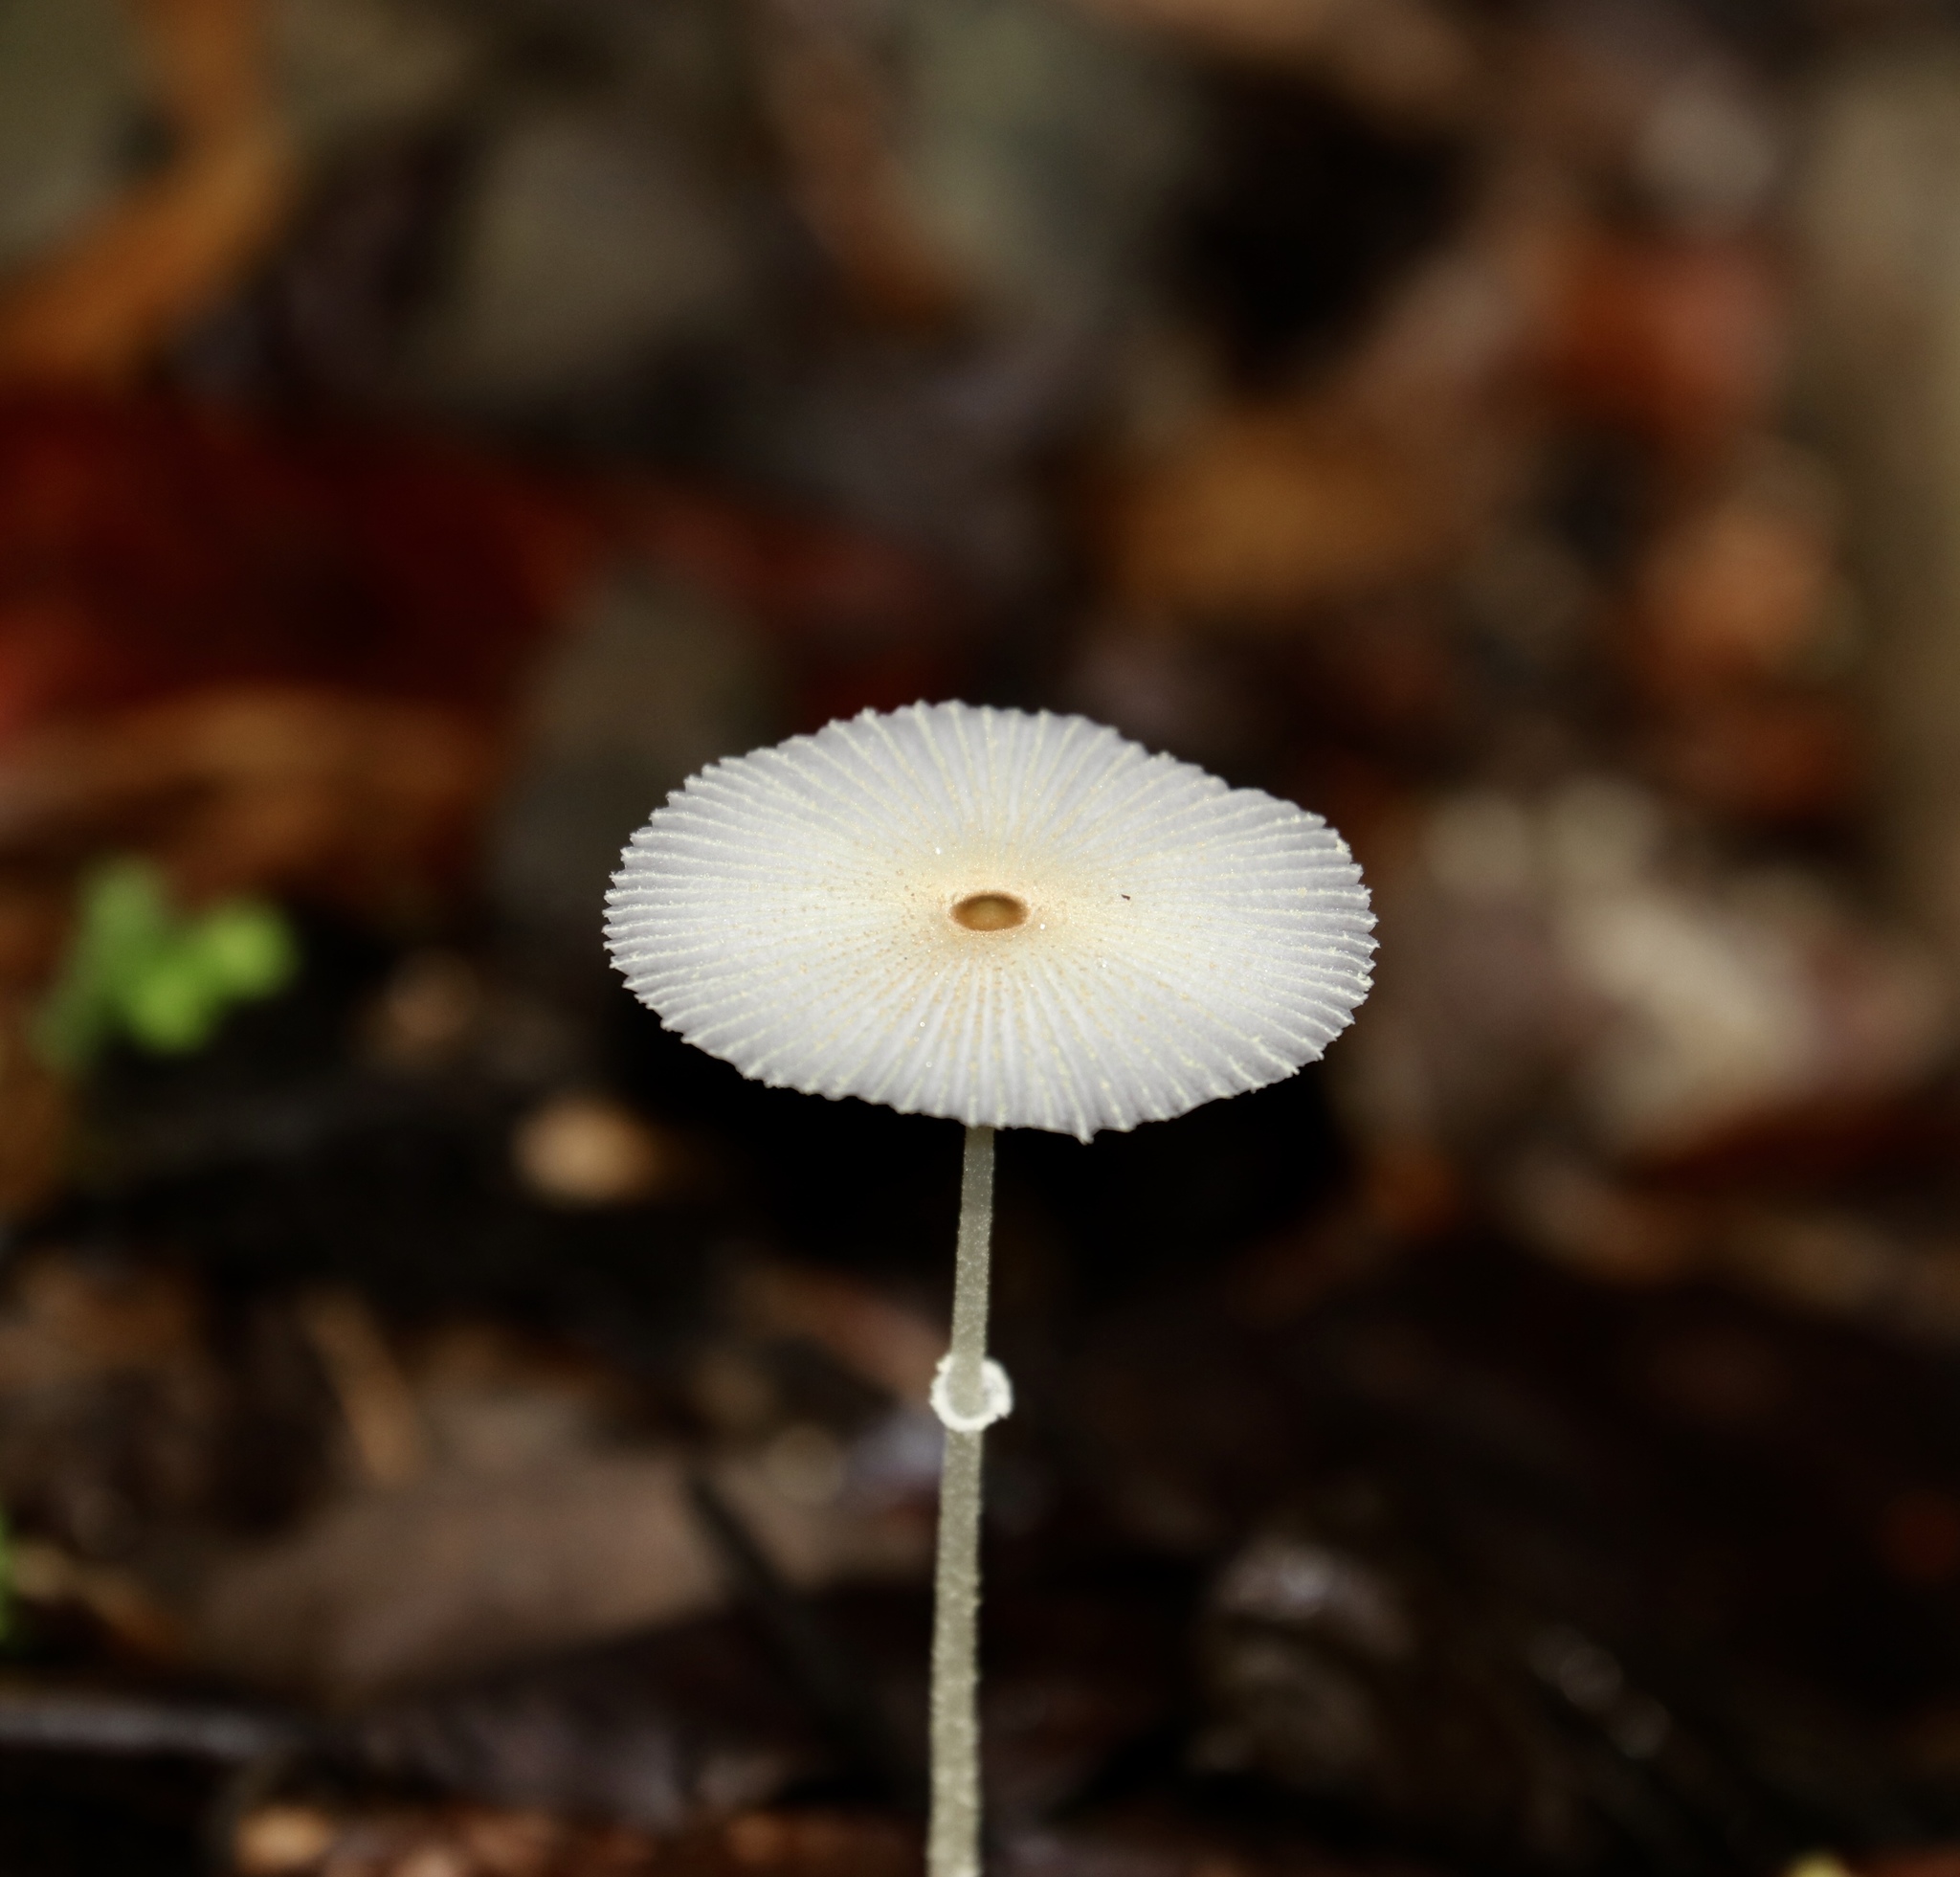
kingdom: Fungi
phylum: Basidiomycota
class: Agaricomycetes
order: Agaricales
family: Agaricaceae
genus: Leucocoprinus
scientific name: Leucocoprinus fragilissimus
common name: Fragile dapperling
